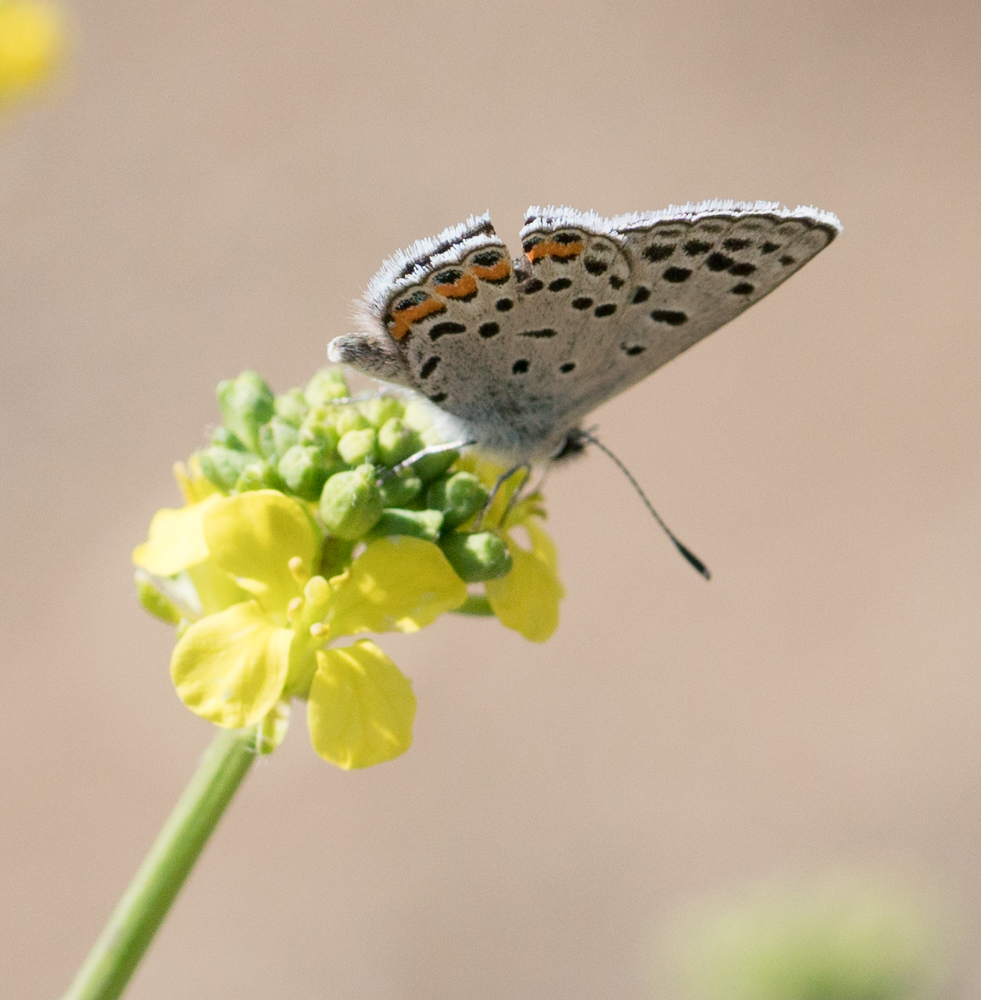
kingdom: Animalia
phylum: Arthropoda
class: Insecta
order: Lepidoptera
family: Lycaenidae
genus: Icaricia
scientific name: Icaricia acmon
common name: Acmon blue
